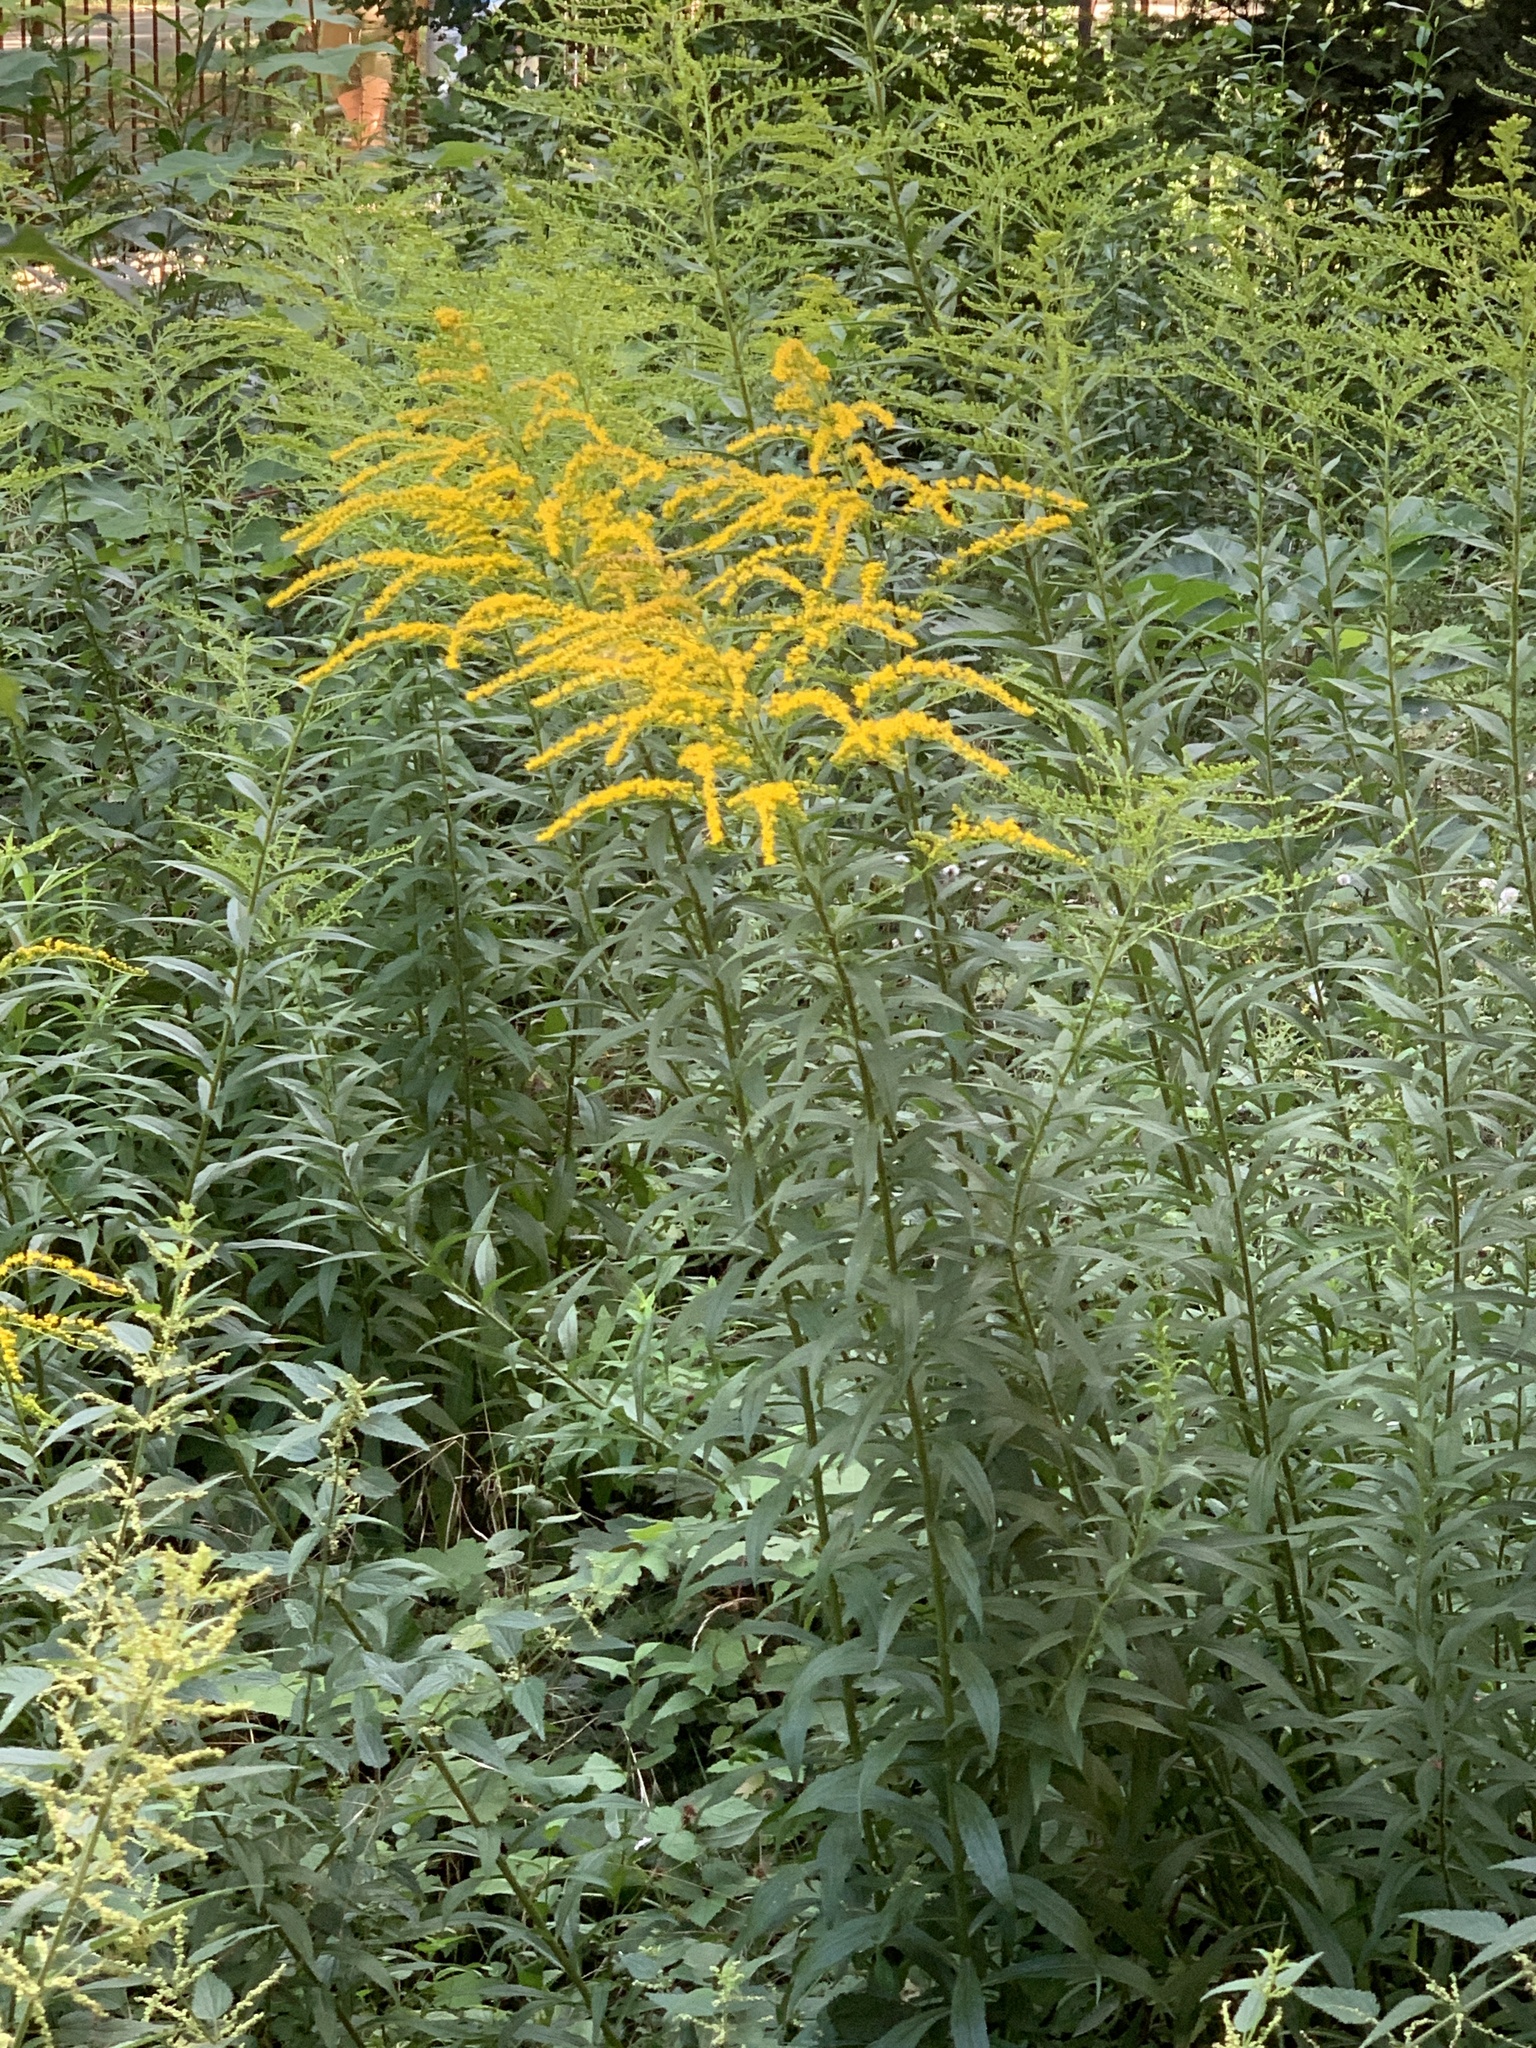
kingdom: Plantae
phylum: Tracheophyta
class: Magnoliopsida
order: Asterales
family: Asteraceae
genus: Solidago
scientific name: Solidago canadensis
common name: Canada goldenrod
